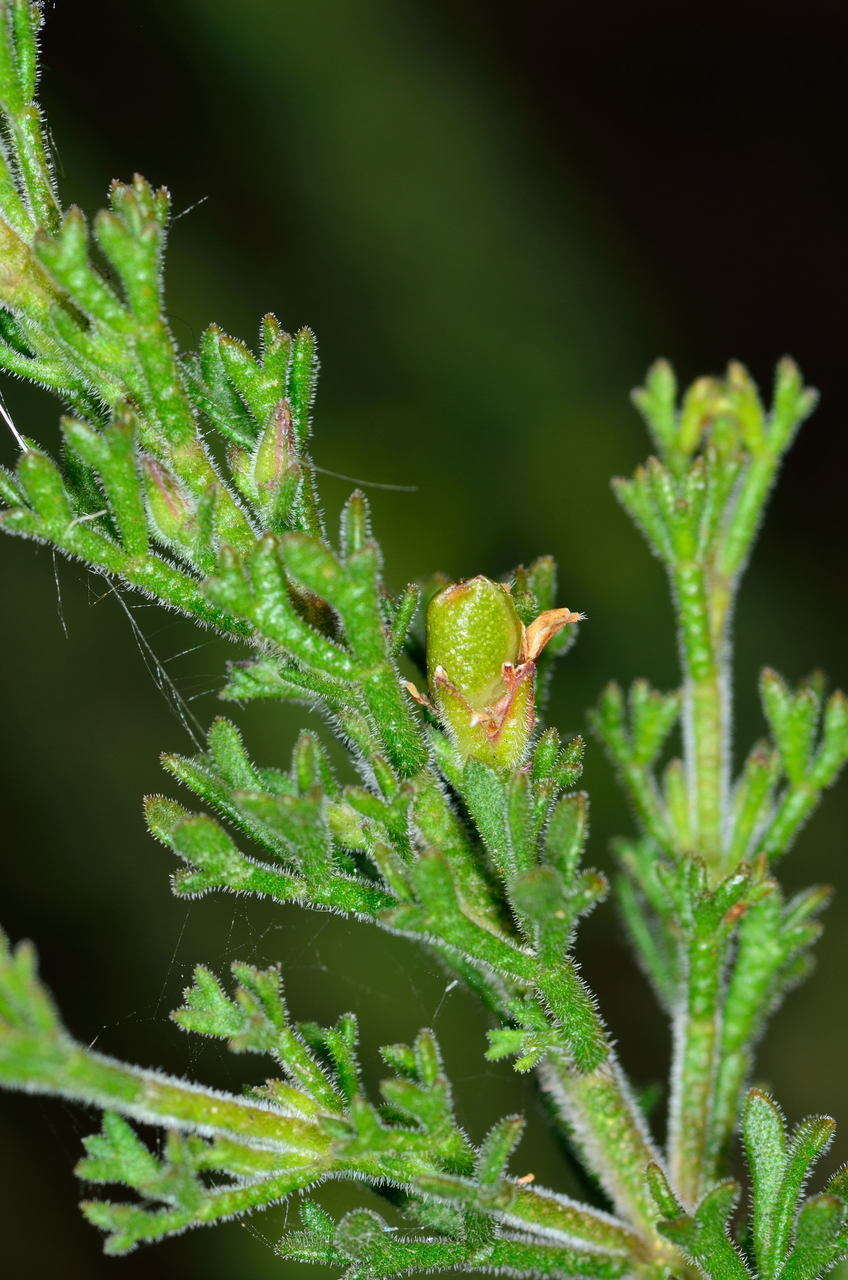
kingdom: Plantae
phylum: Tracheophyta
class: Magnoliopsida
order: Sapindales
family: Rutaceae
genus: Cyanothamnus
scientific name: Cyanothamnus anemonifolius
